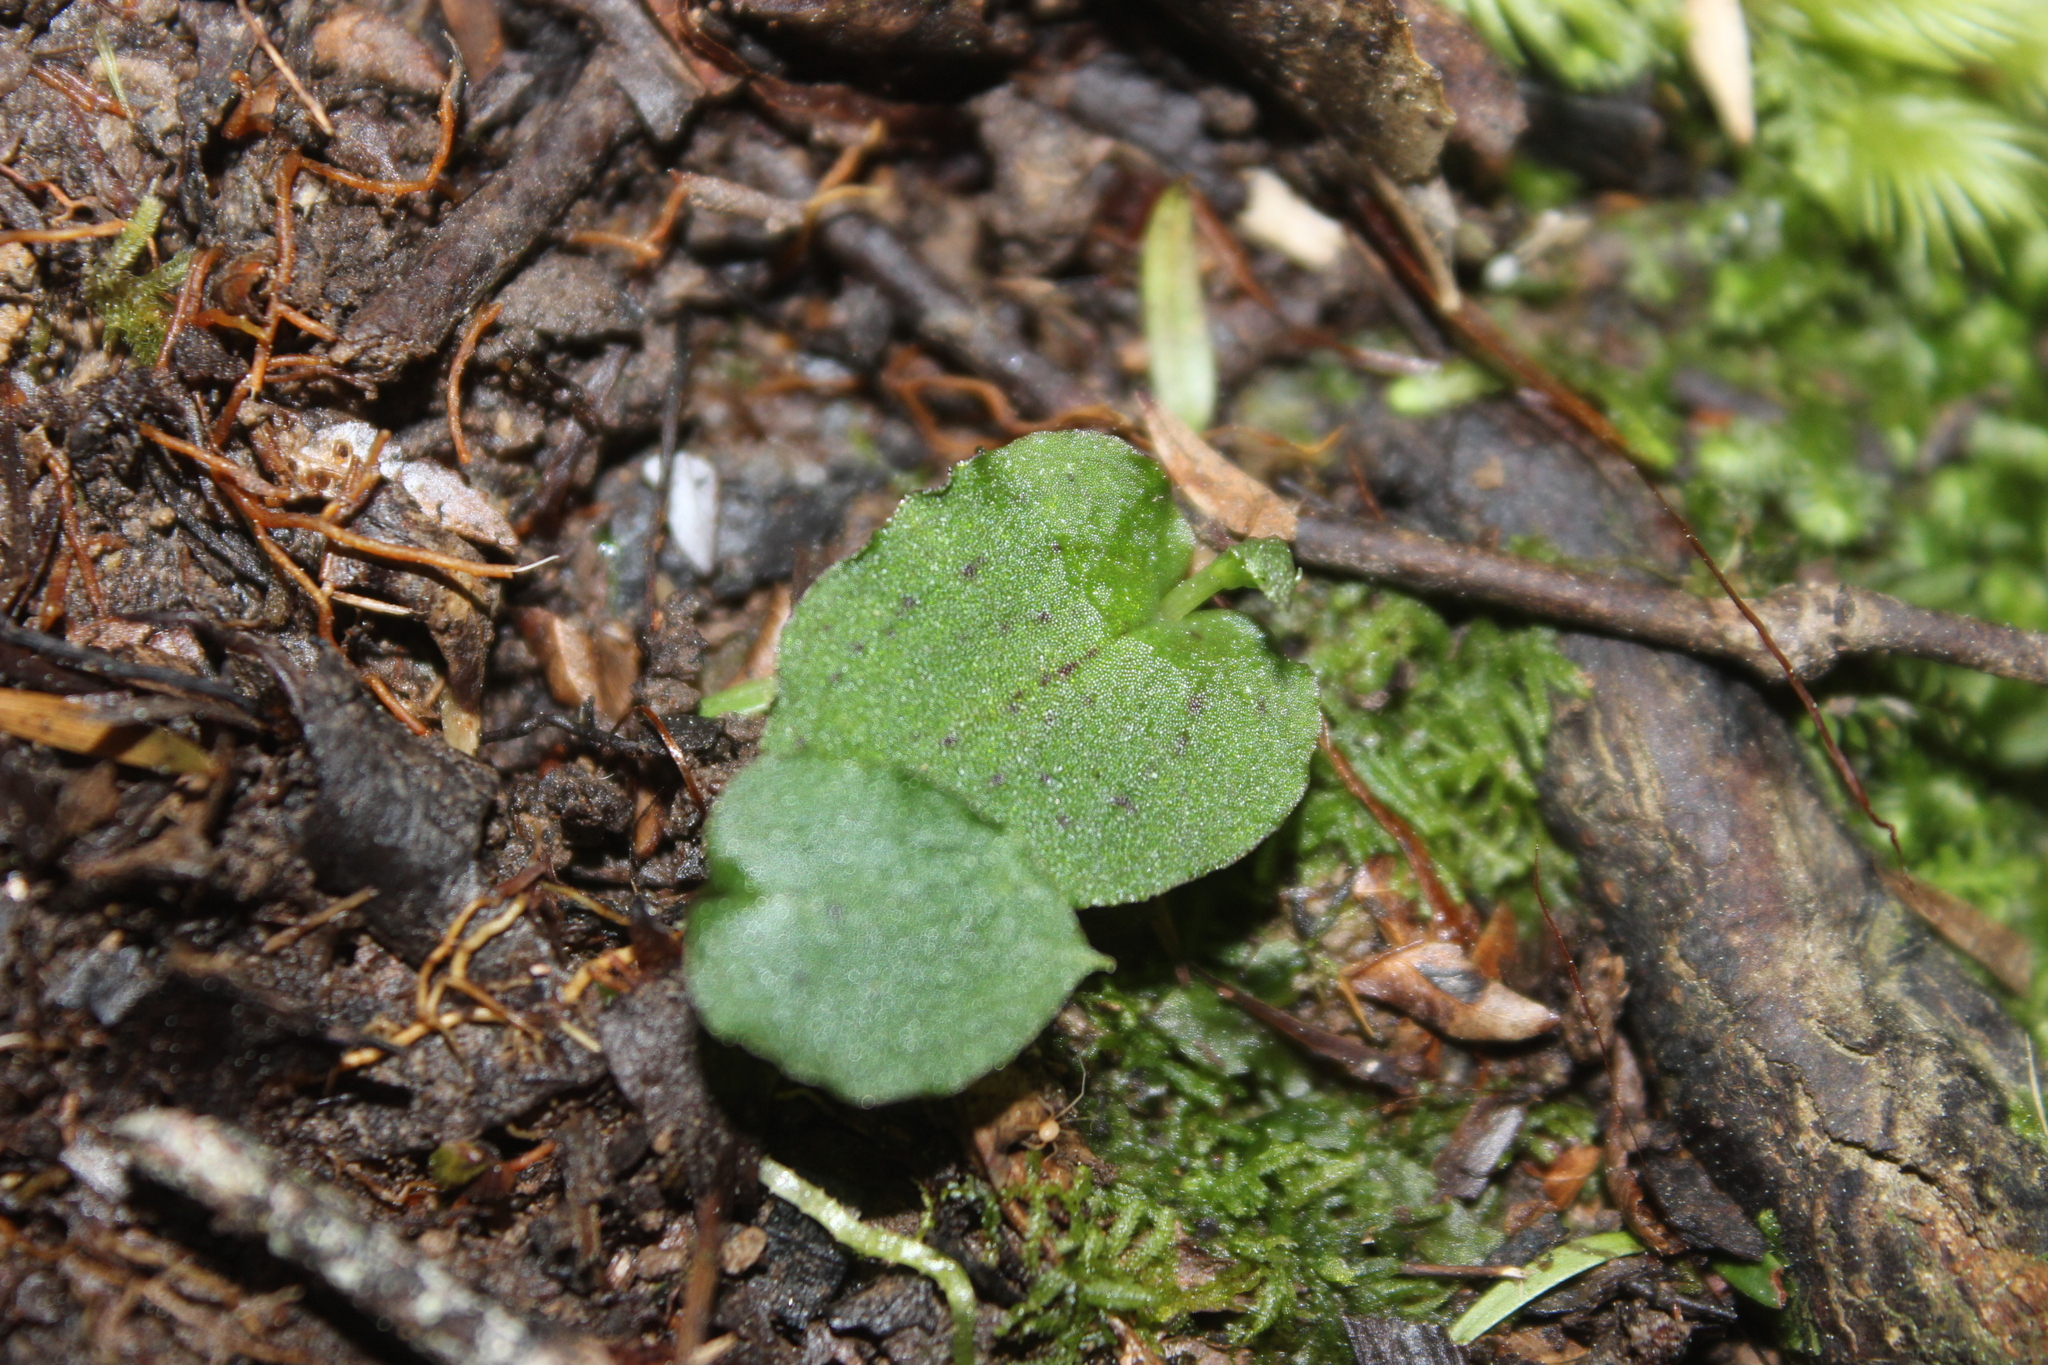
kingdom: Plantae
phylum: Tracheophyta
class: Liliopsida
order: Asparagales
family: Orchidaceae
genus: Corybas
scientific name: Corybas oblongus
